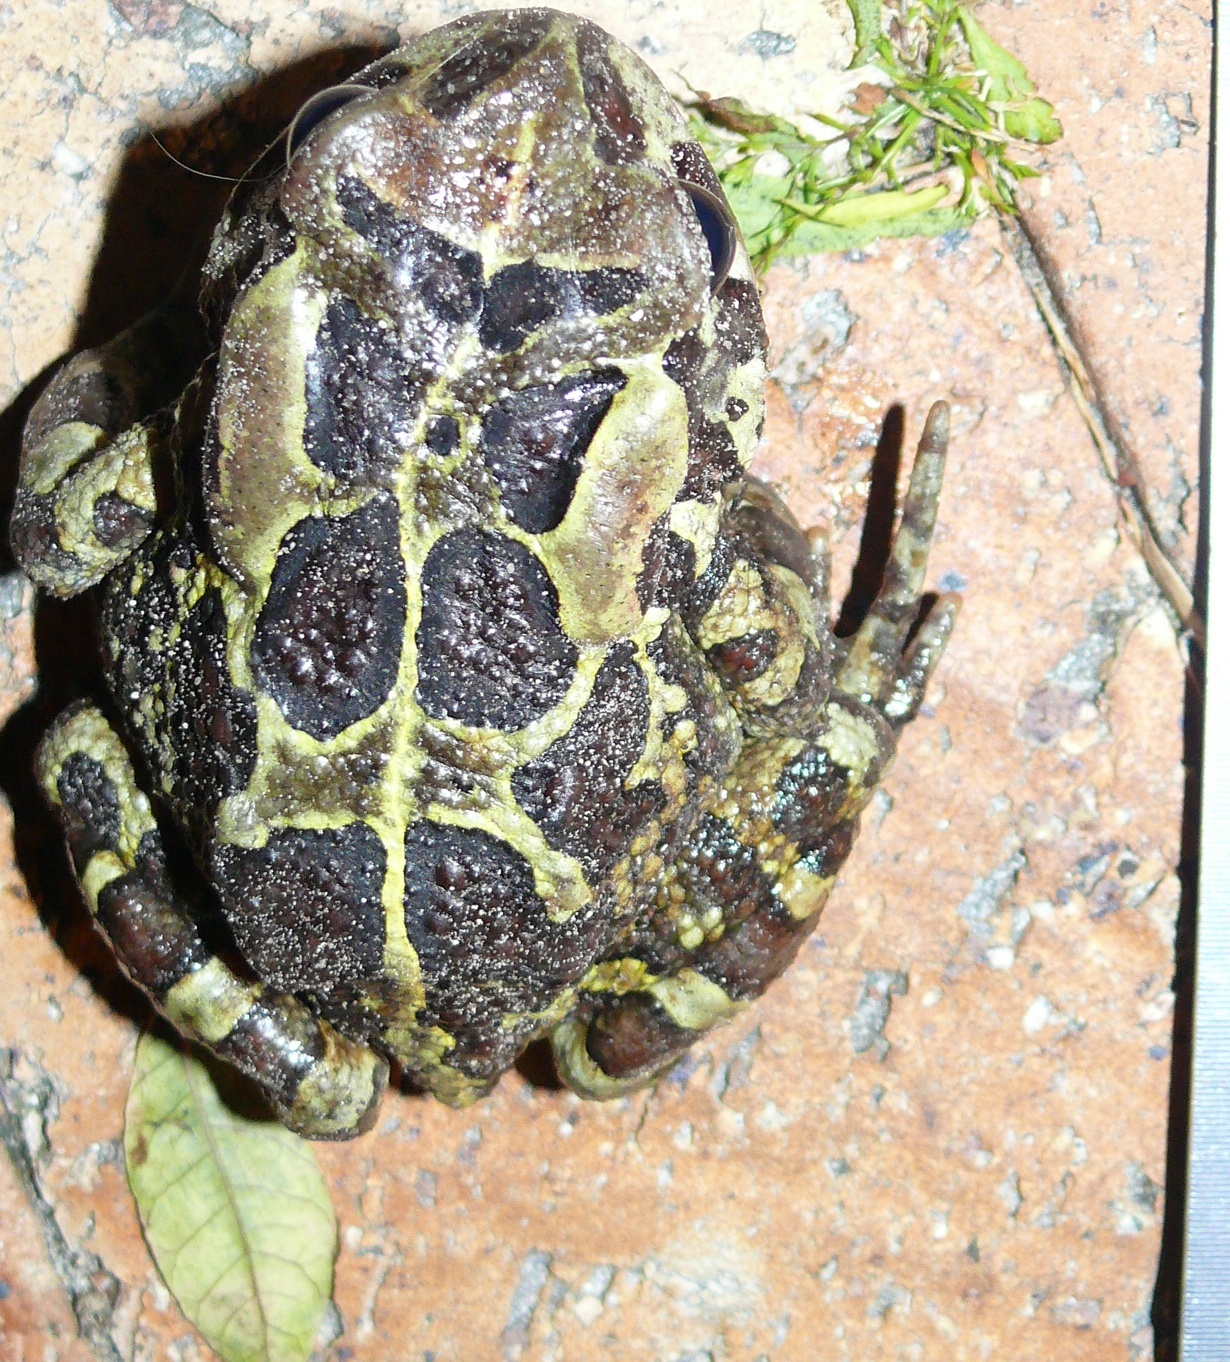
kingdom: Animalia
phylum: Chordata
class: Amphibia
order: Anura
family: Bufonidae
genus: Sclerophrys
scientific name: Sclerophrys pantherina
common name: Panther toad
